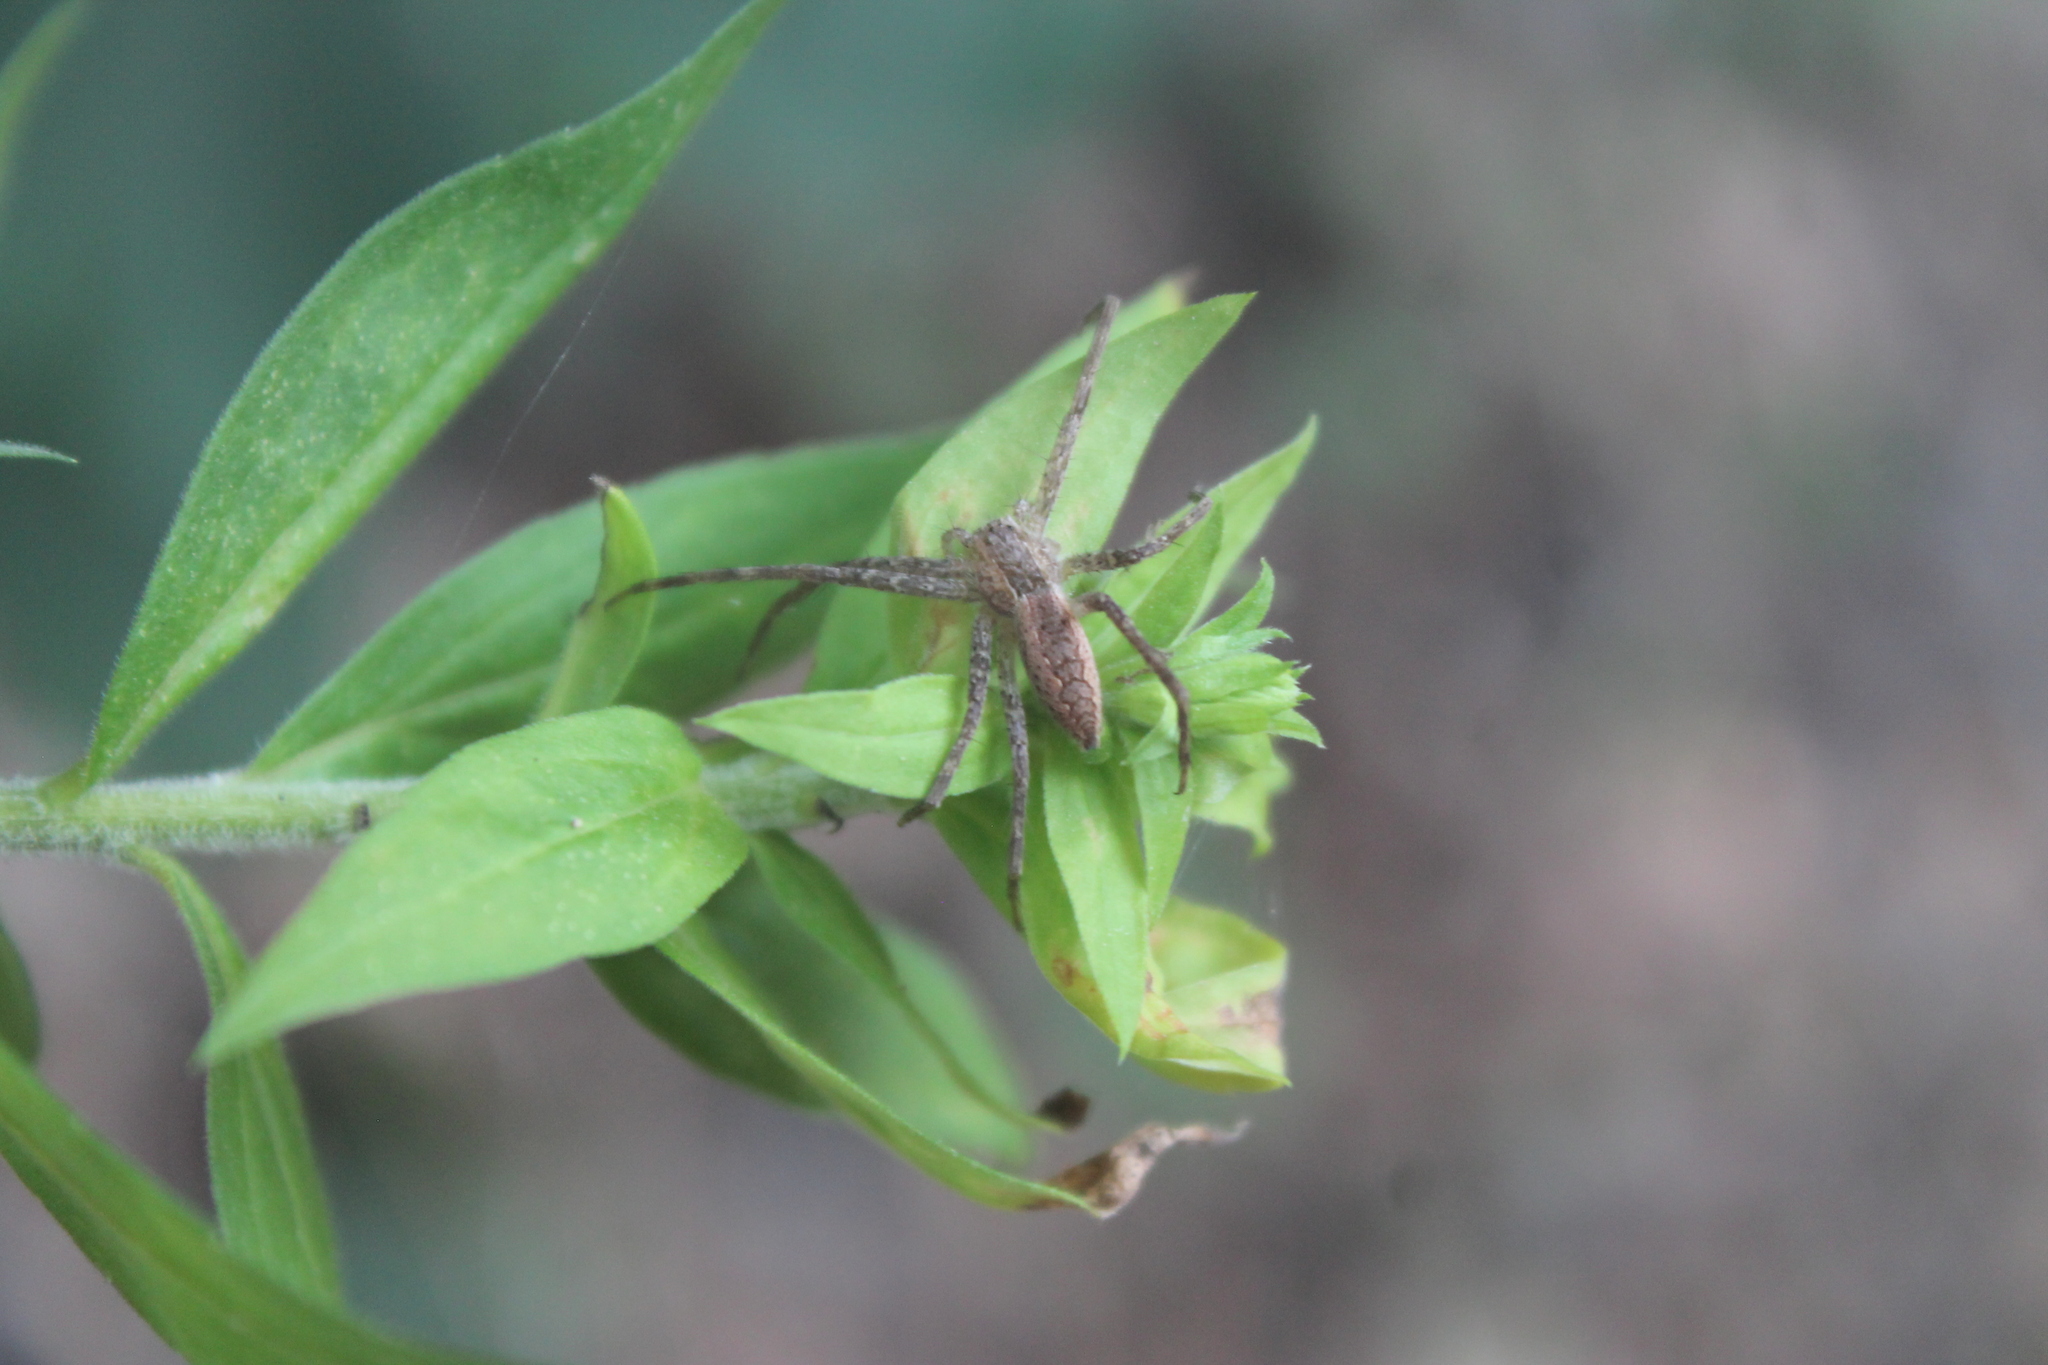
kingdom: Animalia
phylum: Arthropoda
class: Arachnida
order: Araneae
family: Pisauridae
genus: Pisaurina
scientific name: Pisaurina mira
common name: American nursery web spider
